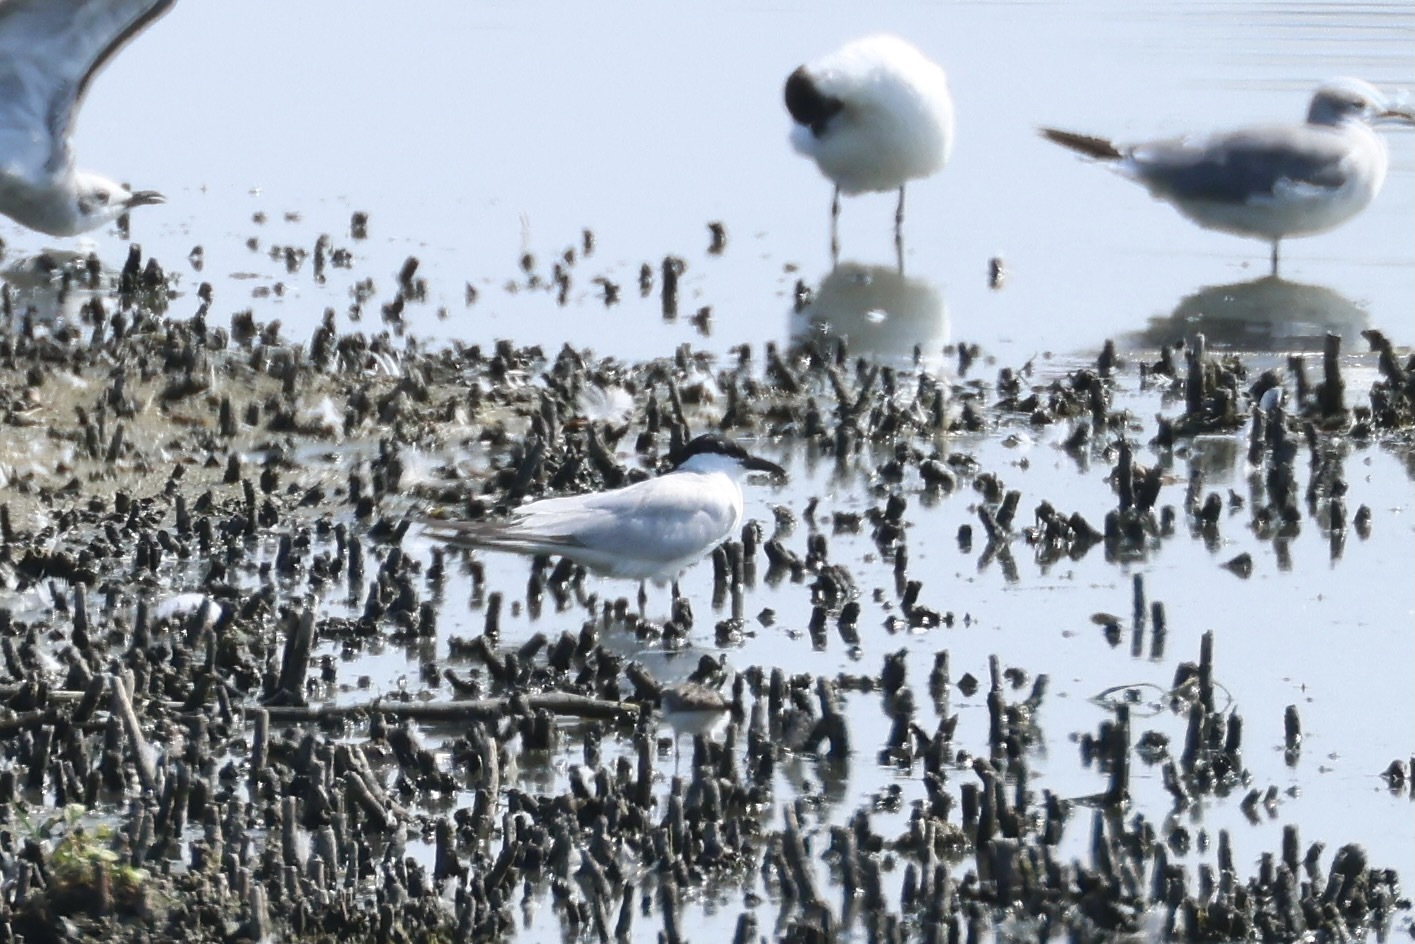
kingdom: Animalia
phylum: Chordata
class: Aves
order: Charadriiformes
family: Laridae
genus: Gelochelidon
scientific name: Gelochelidon nilotica
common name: Gull-billed tern
